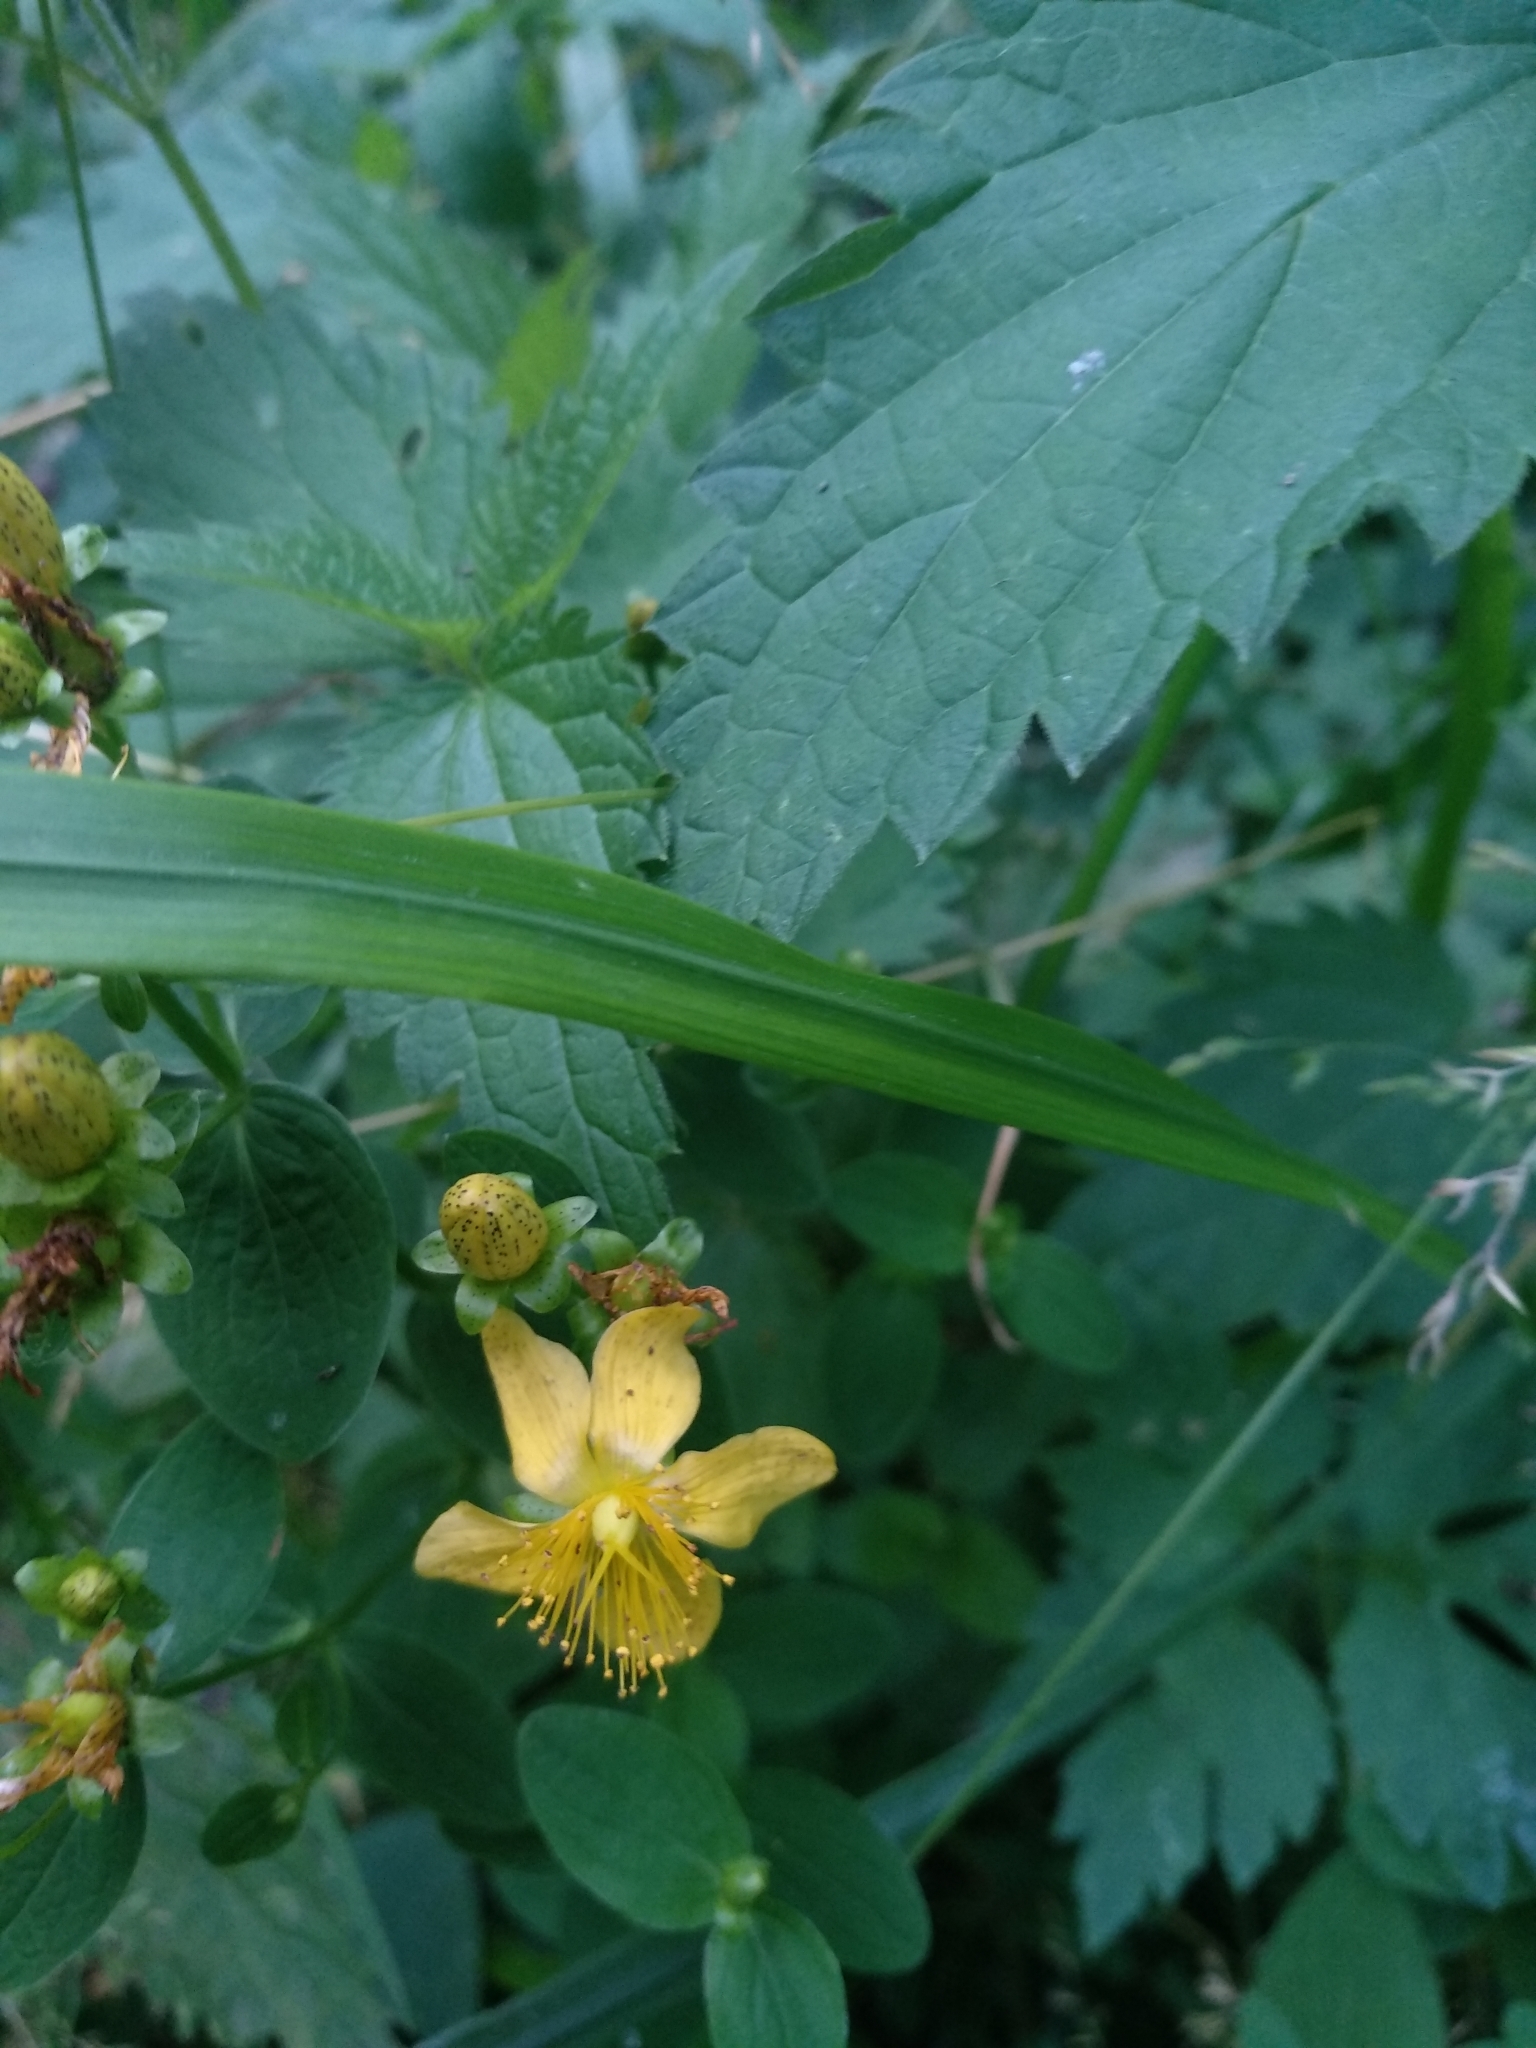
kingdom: Plantae
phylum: Tracheophyta
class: Magnoliopsida
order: Malpighiales
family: Hypericaceae
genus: Hypericum
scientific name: Hypericum maculatum
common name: Imperforate st. john's-wort
